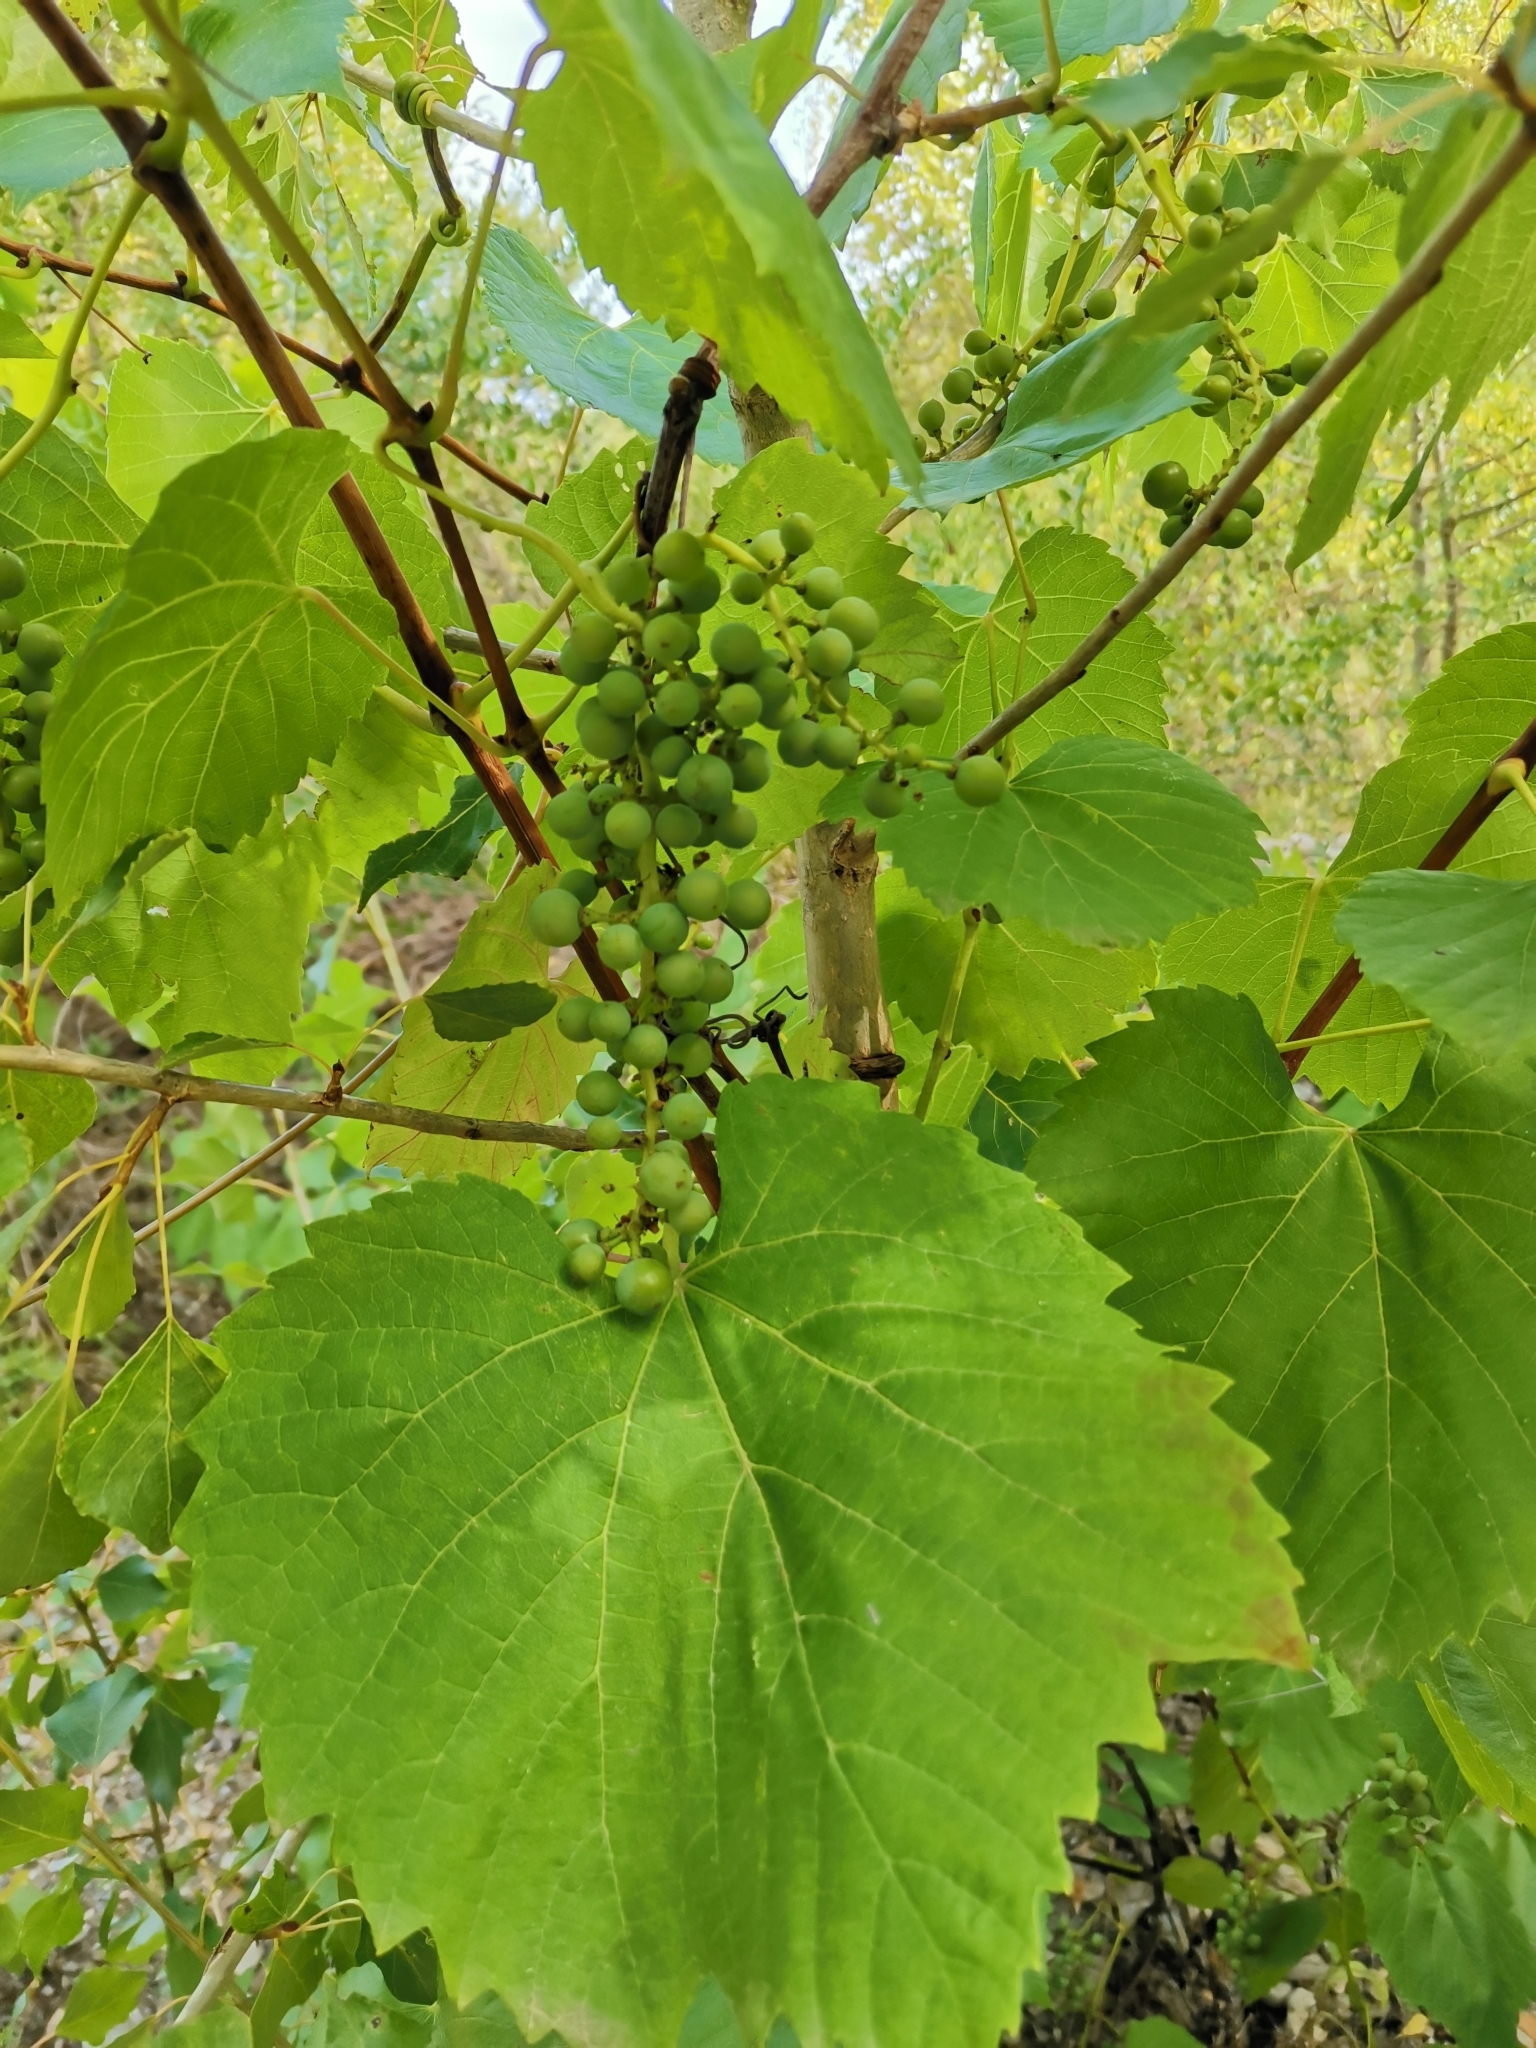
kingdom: Plantae
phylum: Tracheophyta
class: Magnoliopsida
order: Vitales
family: Vitaceae
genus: Vitis
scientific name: Vitis vinifera
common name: Grape-vine
